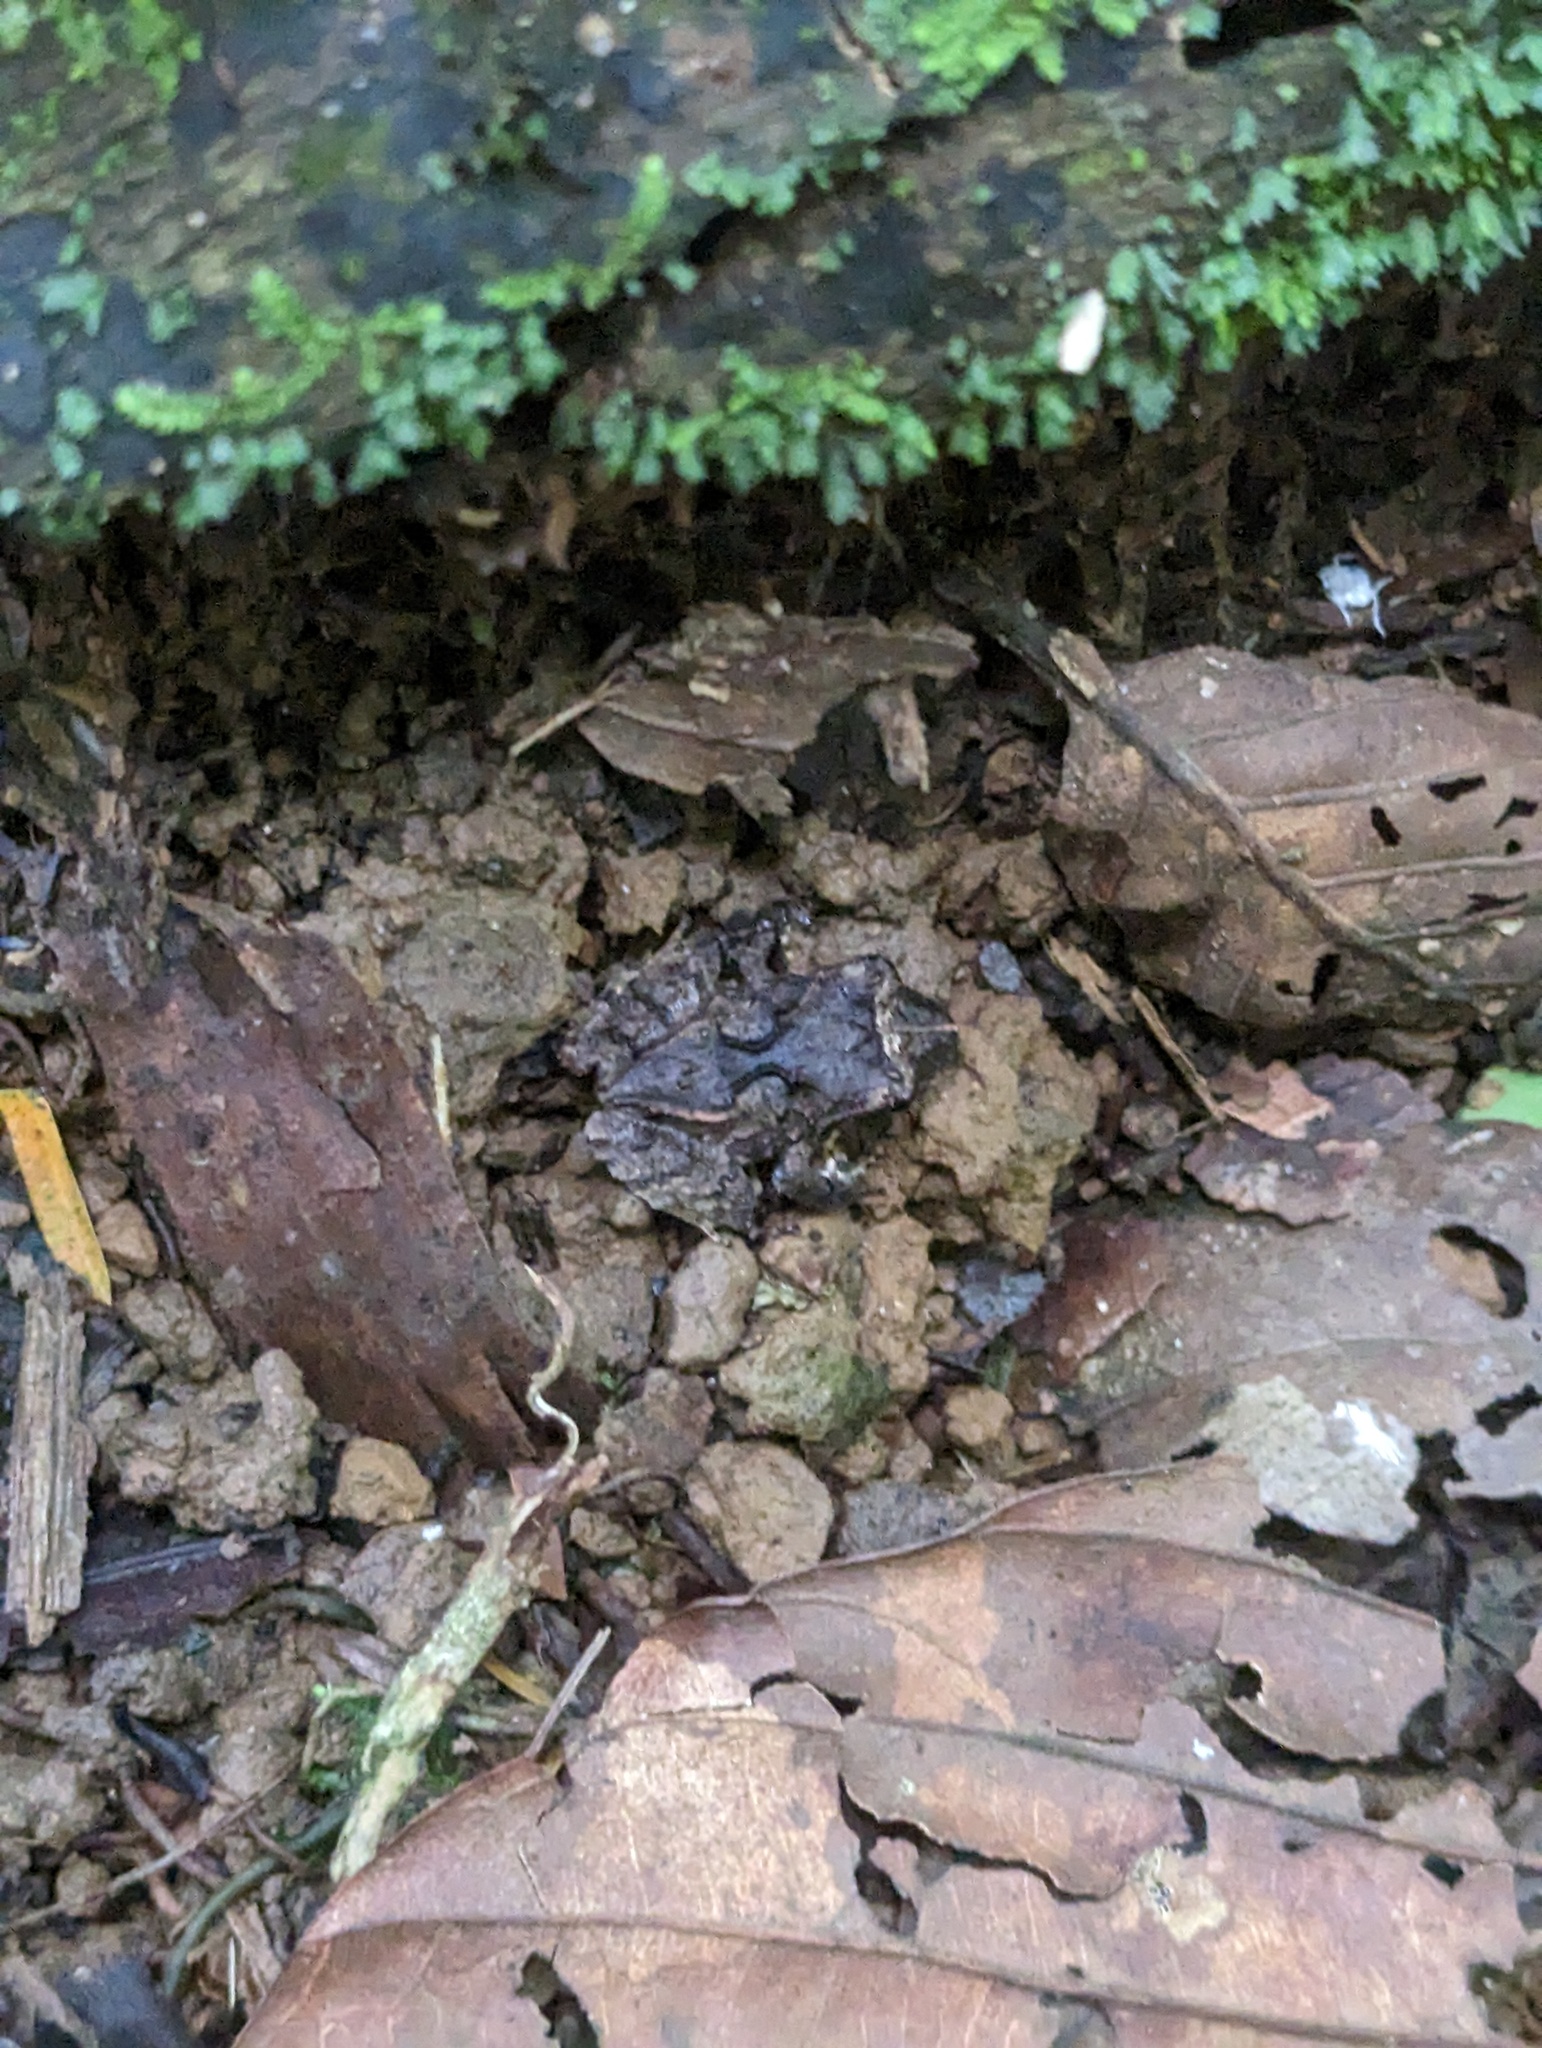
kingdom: Animalia
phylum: Chordata
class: Amphibia
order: Anura
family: Craugastoridae
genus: Craugastor
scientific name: Craugastor megacephalus
